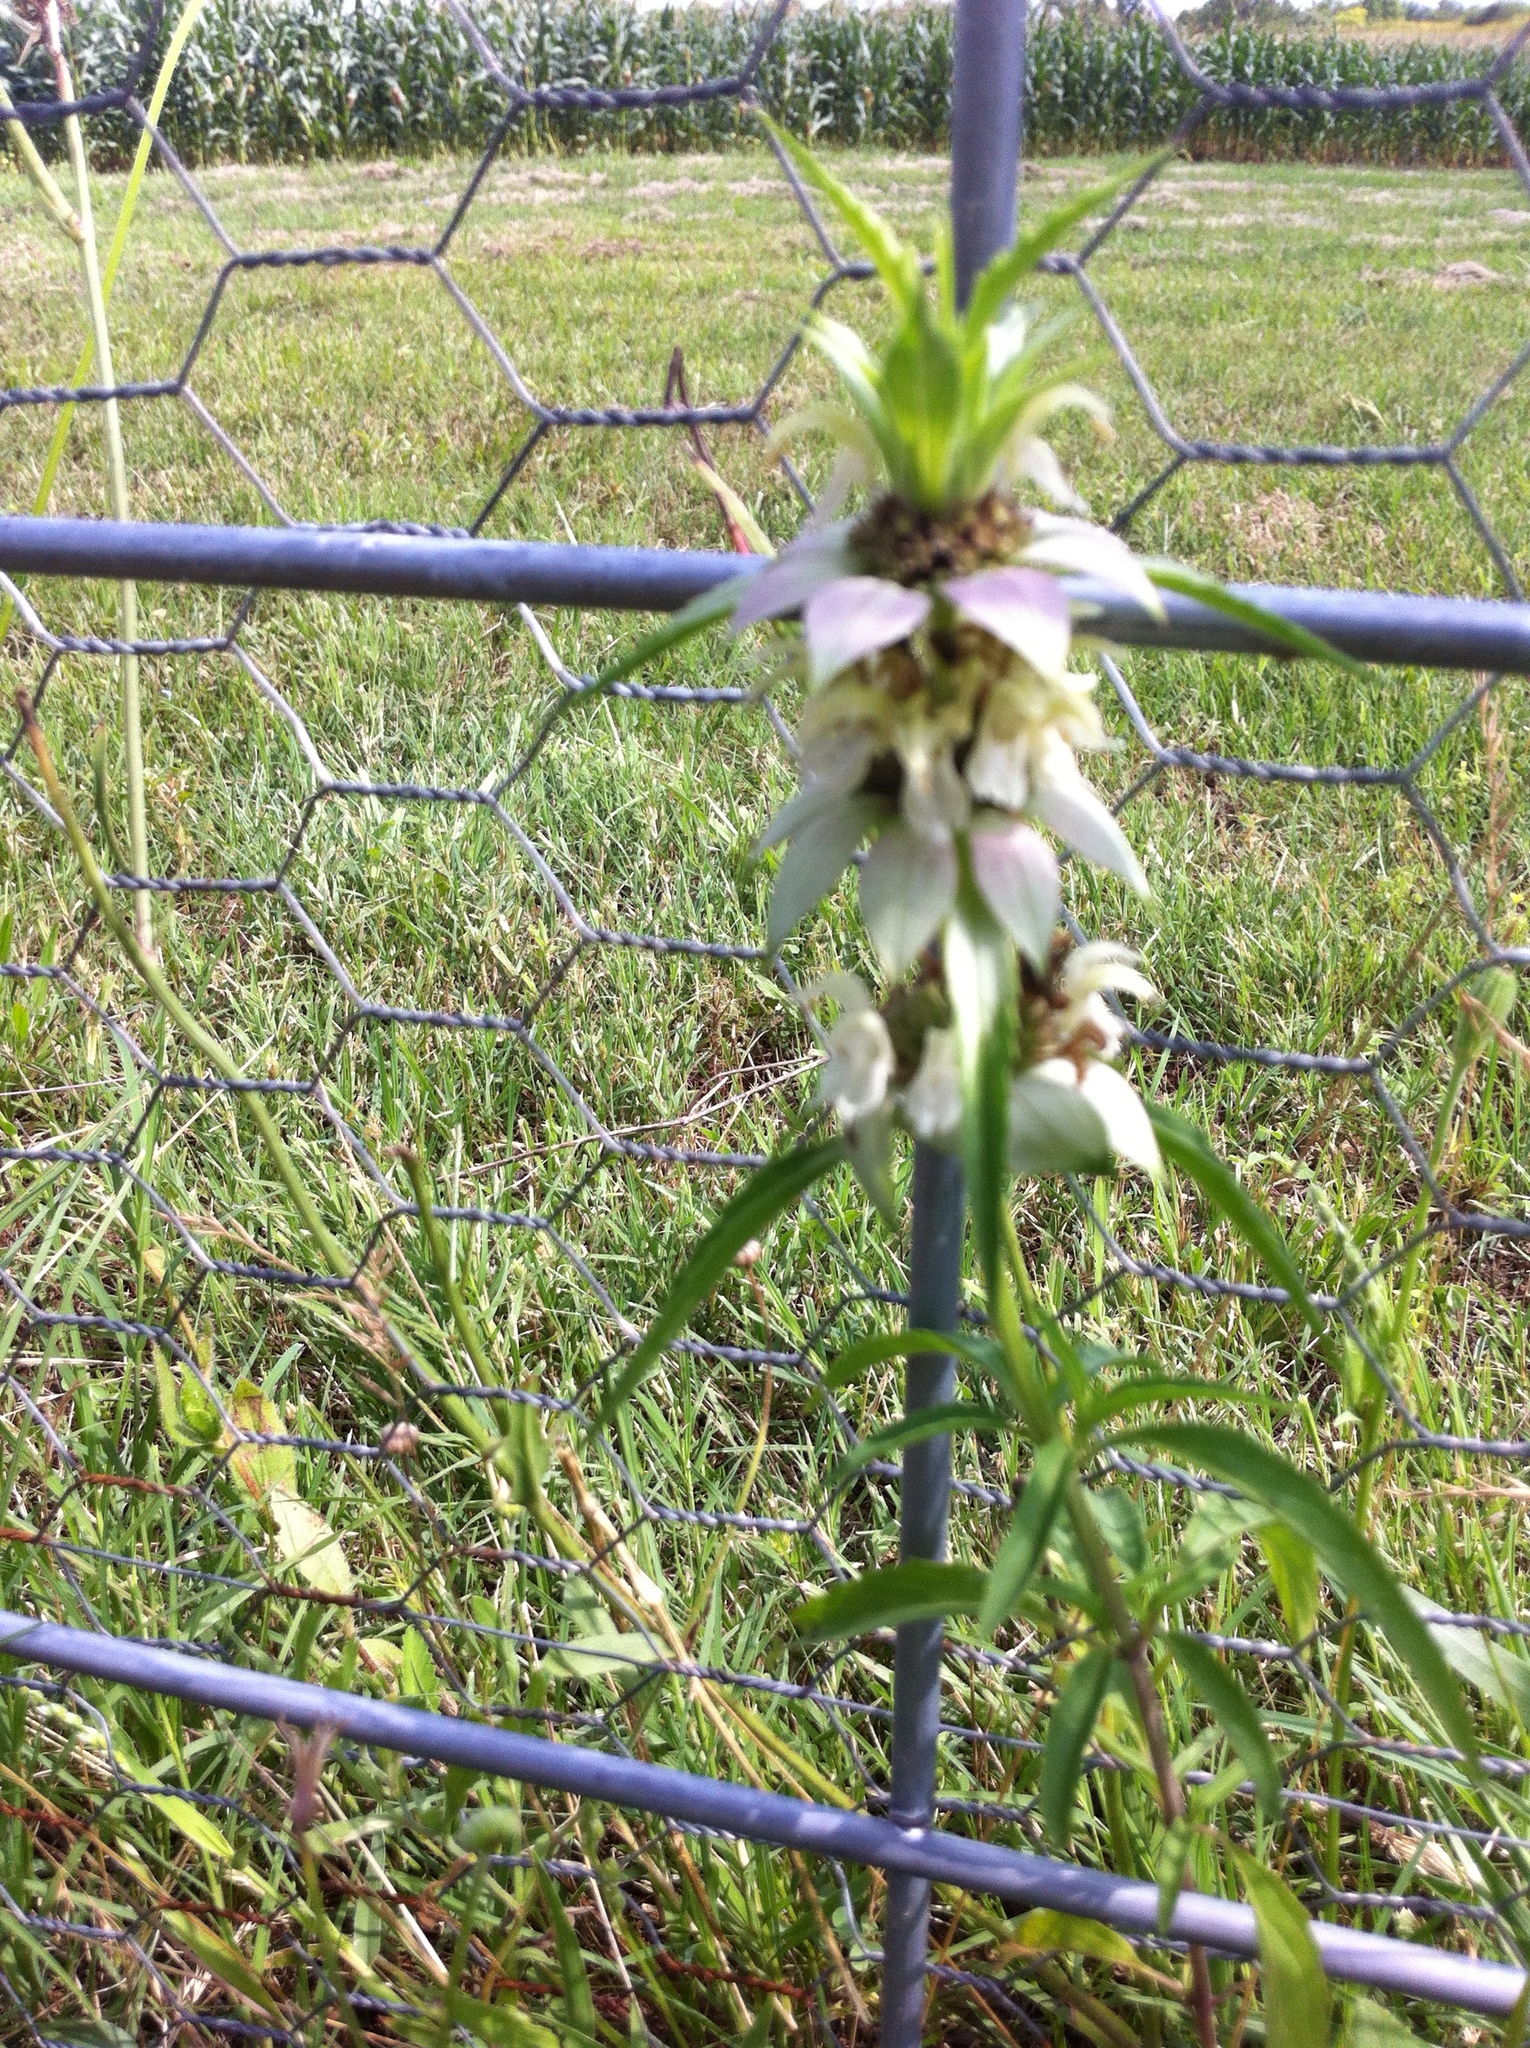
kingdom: Plantae
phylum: Tracheophyta
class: Magnoliopsida
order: Lamiales
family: Lamiaceae
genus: Monarda
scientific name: Monarda punctata
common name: Dotted monarda
